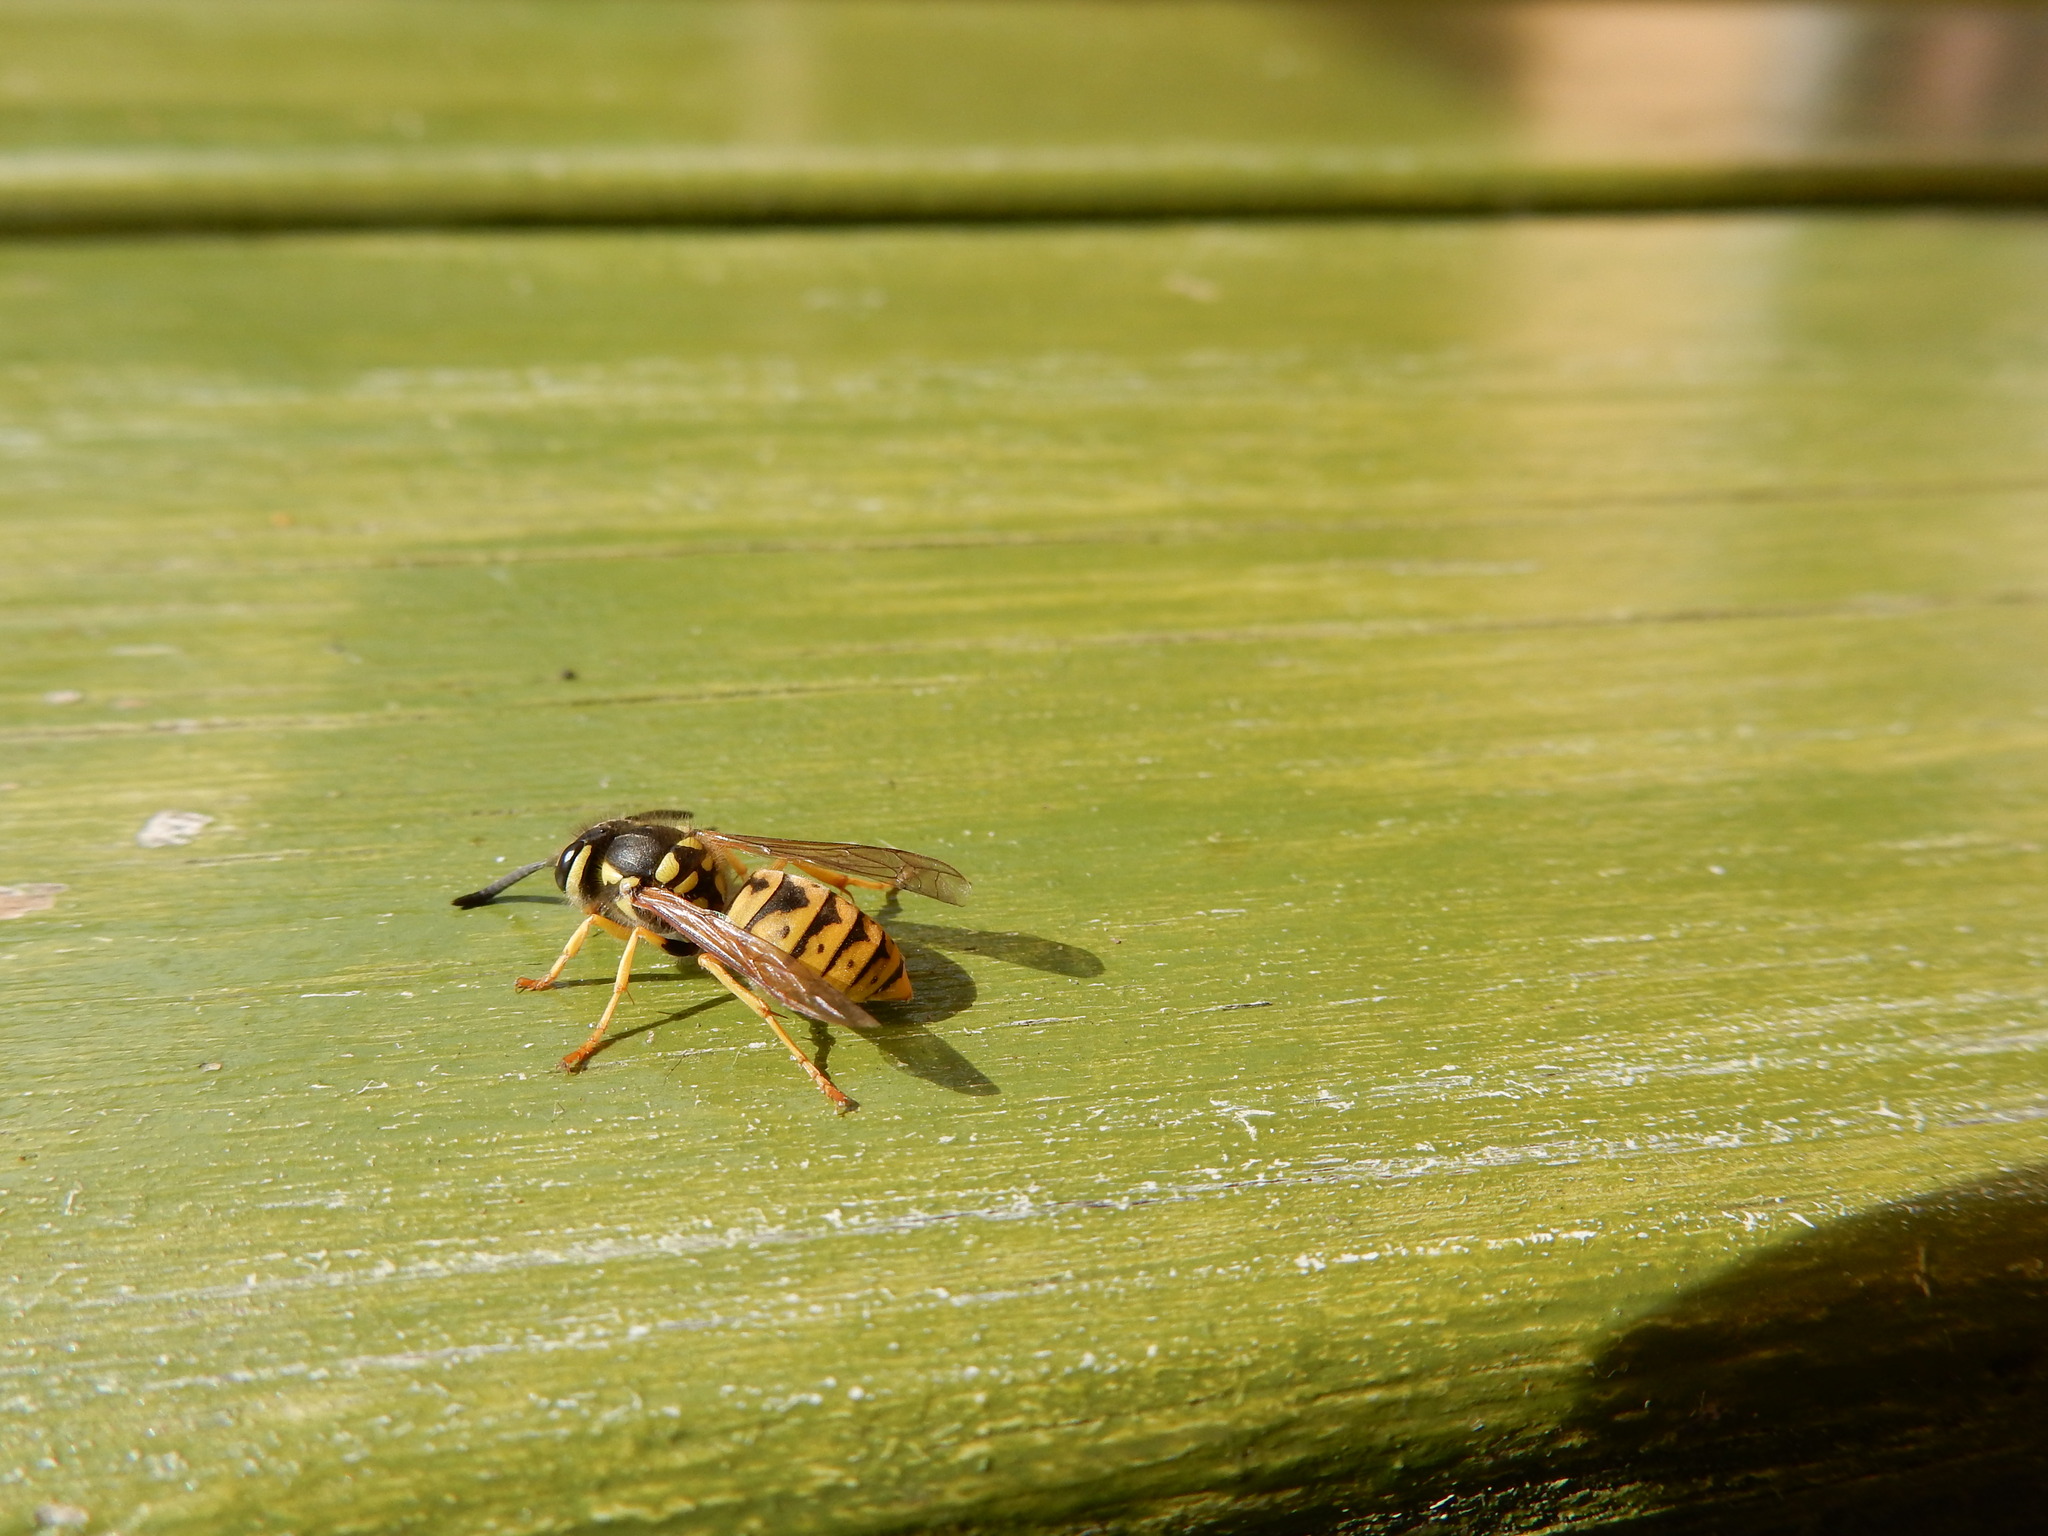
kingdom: Animalia
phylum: Arthropoda
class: Insecta
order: Hymenoptera
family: Vespidae
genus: Vespula
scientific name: Vespula germanica
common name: German wasp
